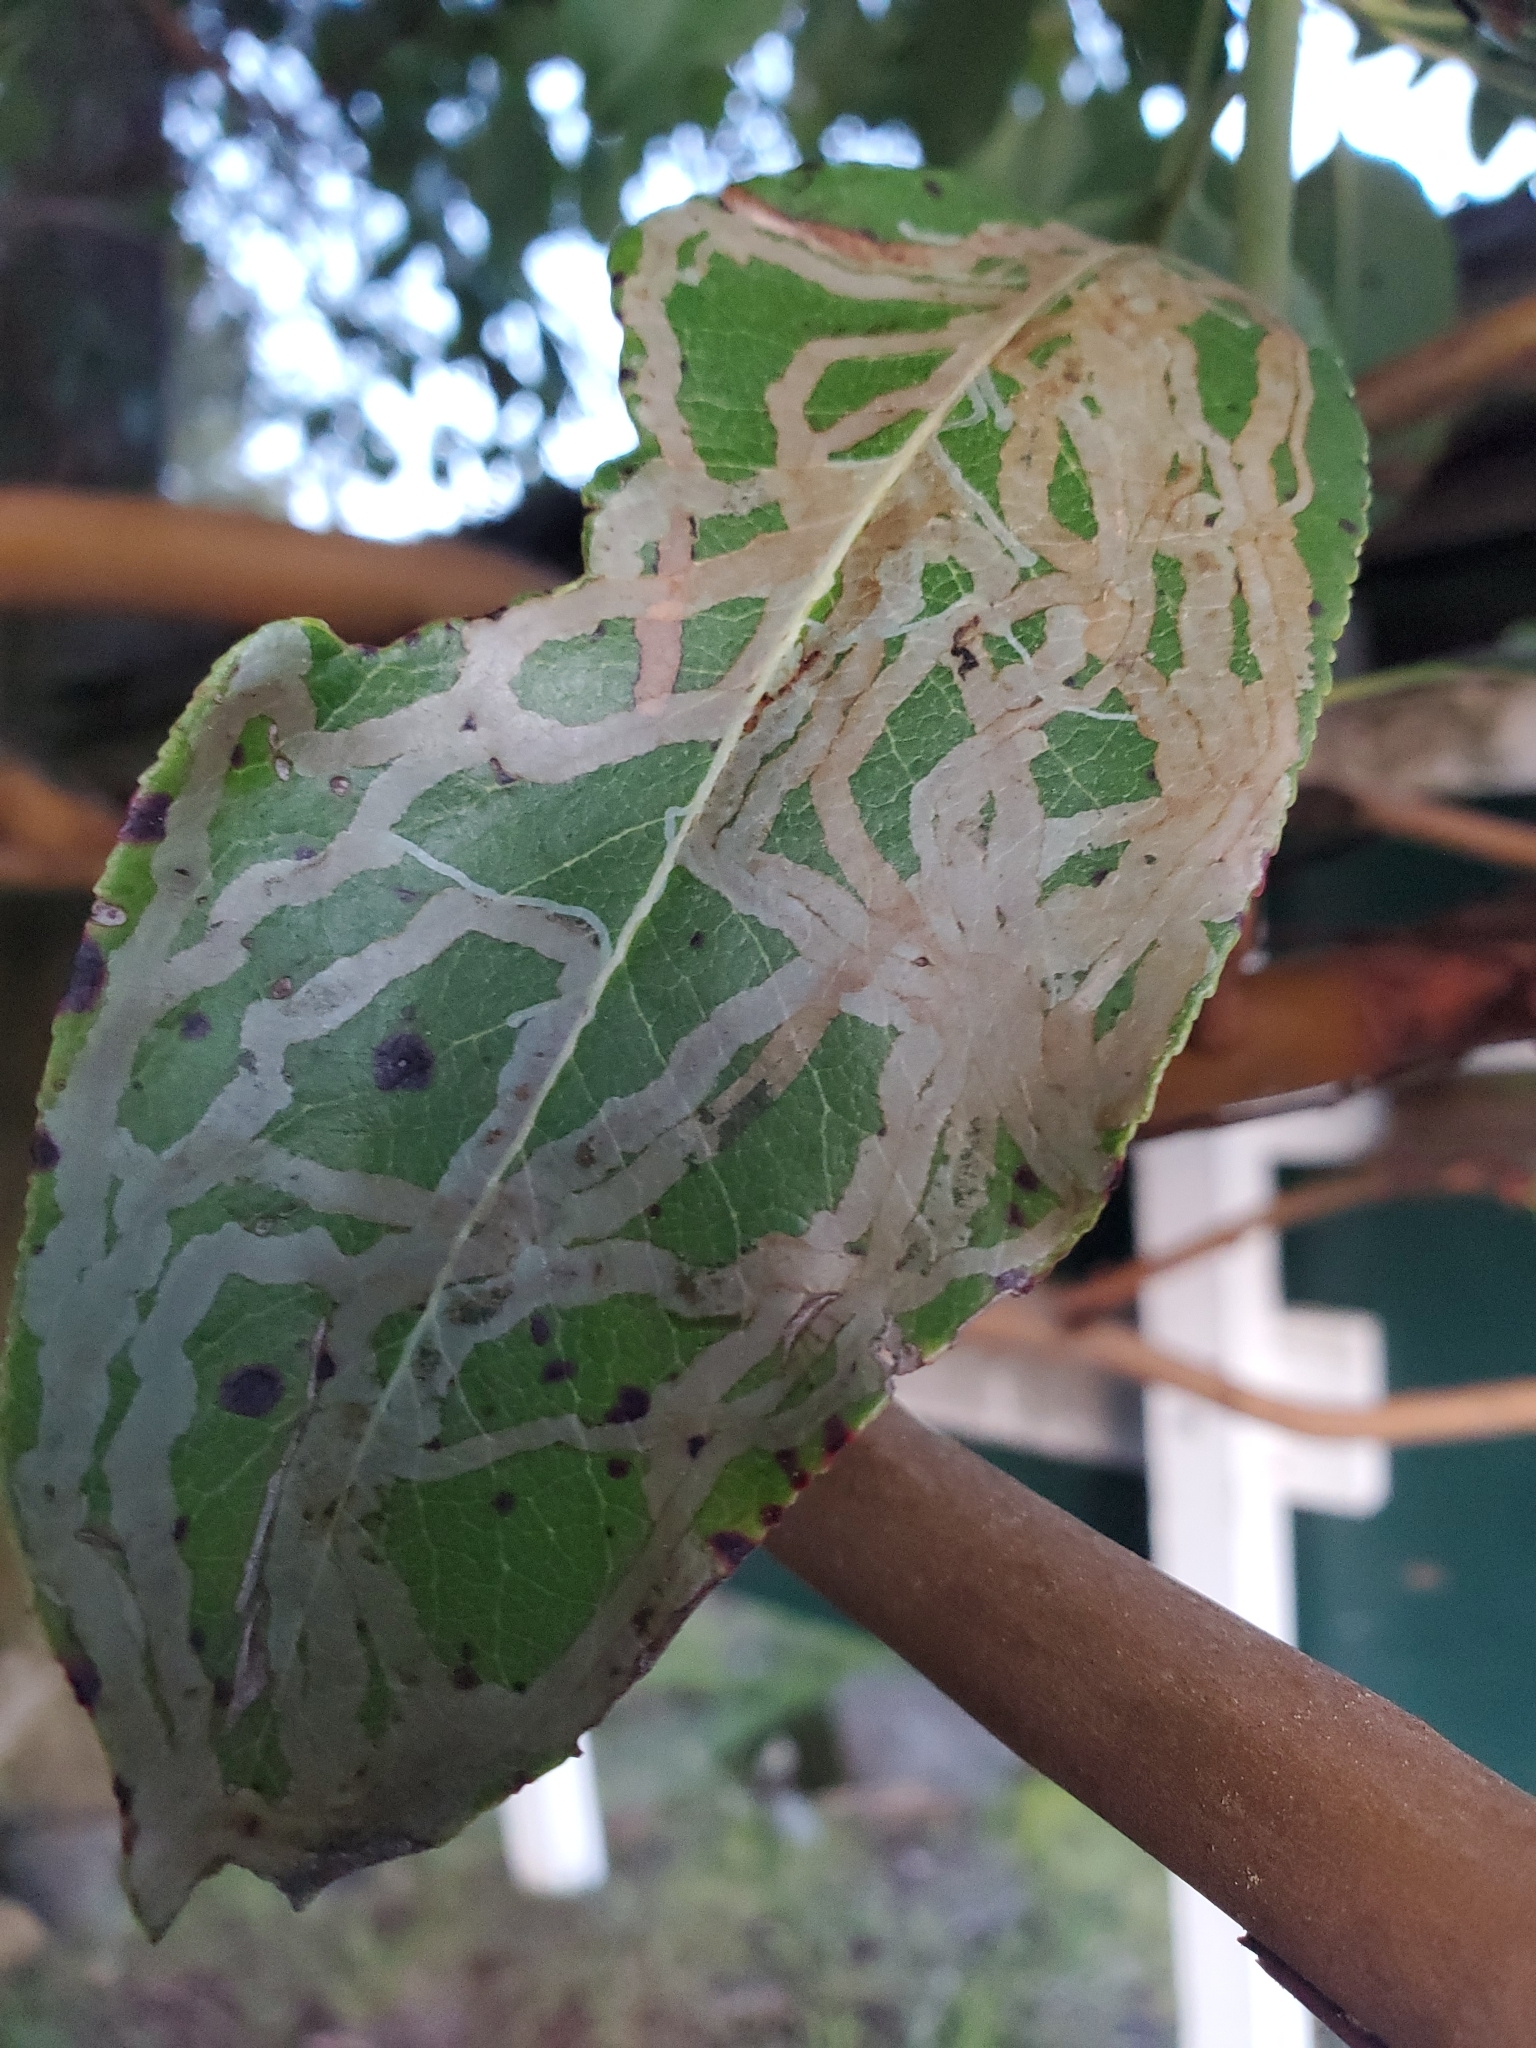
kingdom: Animalia
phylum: Arthropoda
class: Insecta
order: Lepidoptera
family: Gracillariidae
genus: Marmara
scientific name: Marmara arbutiella
